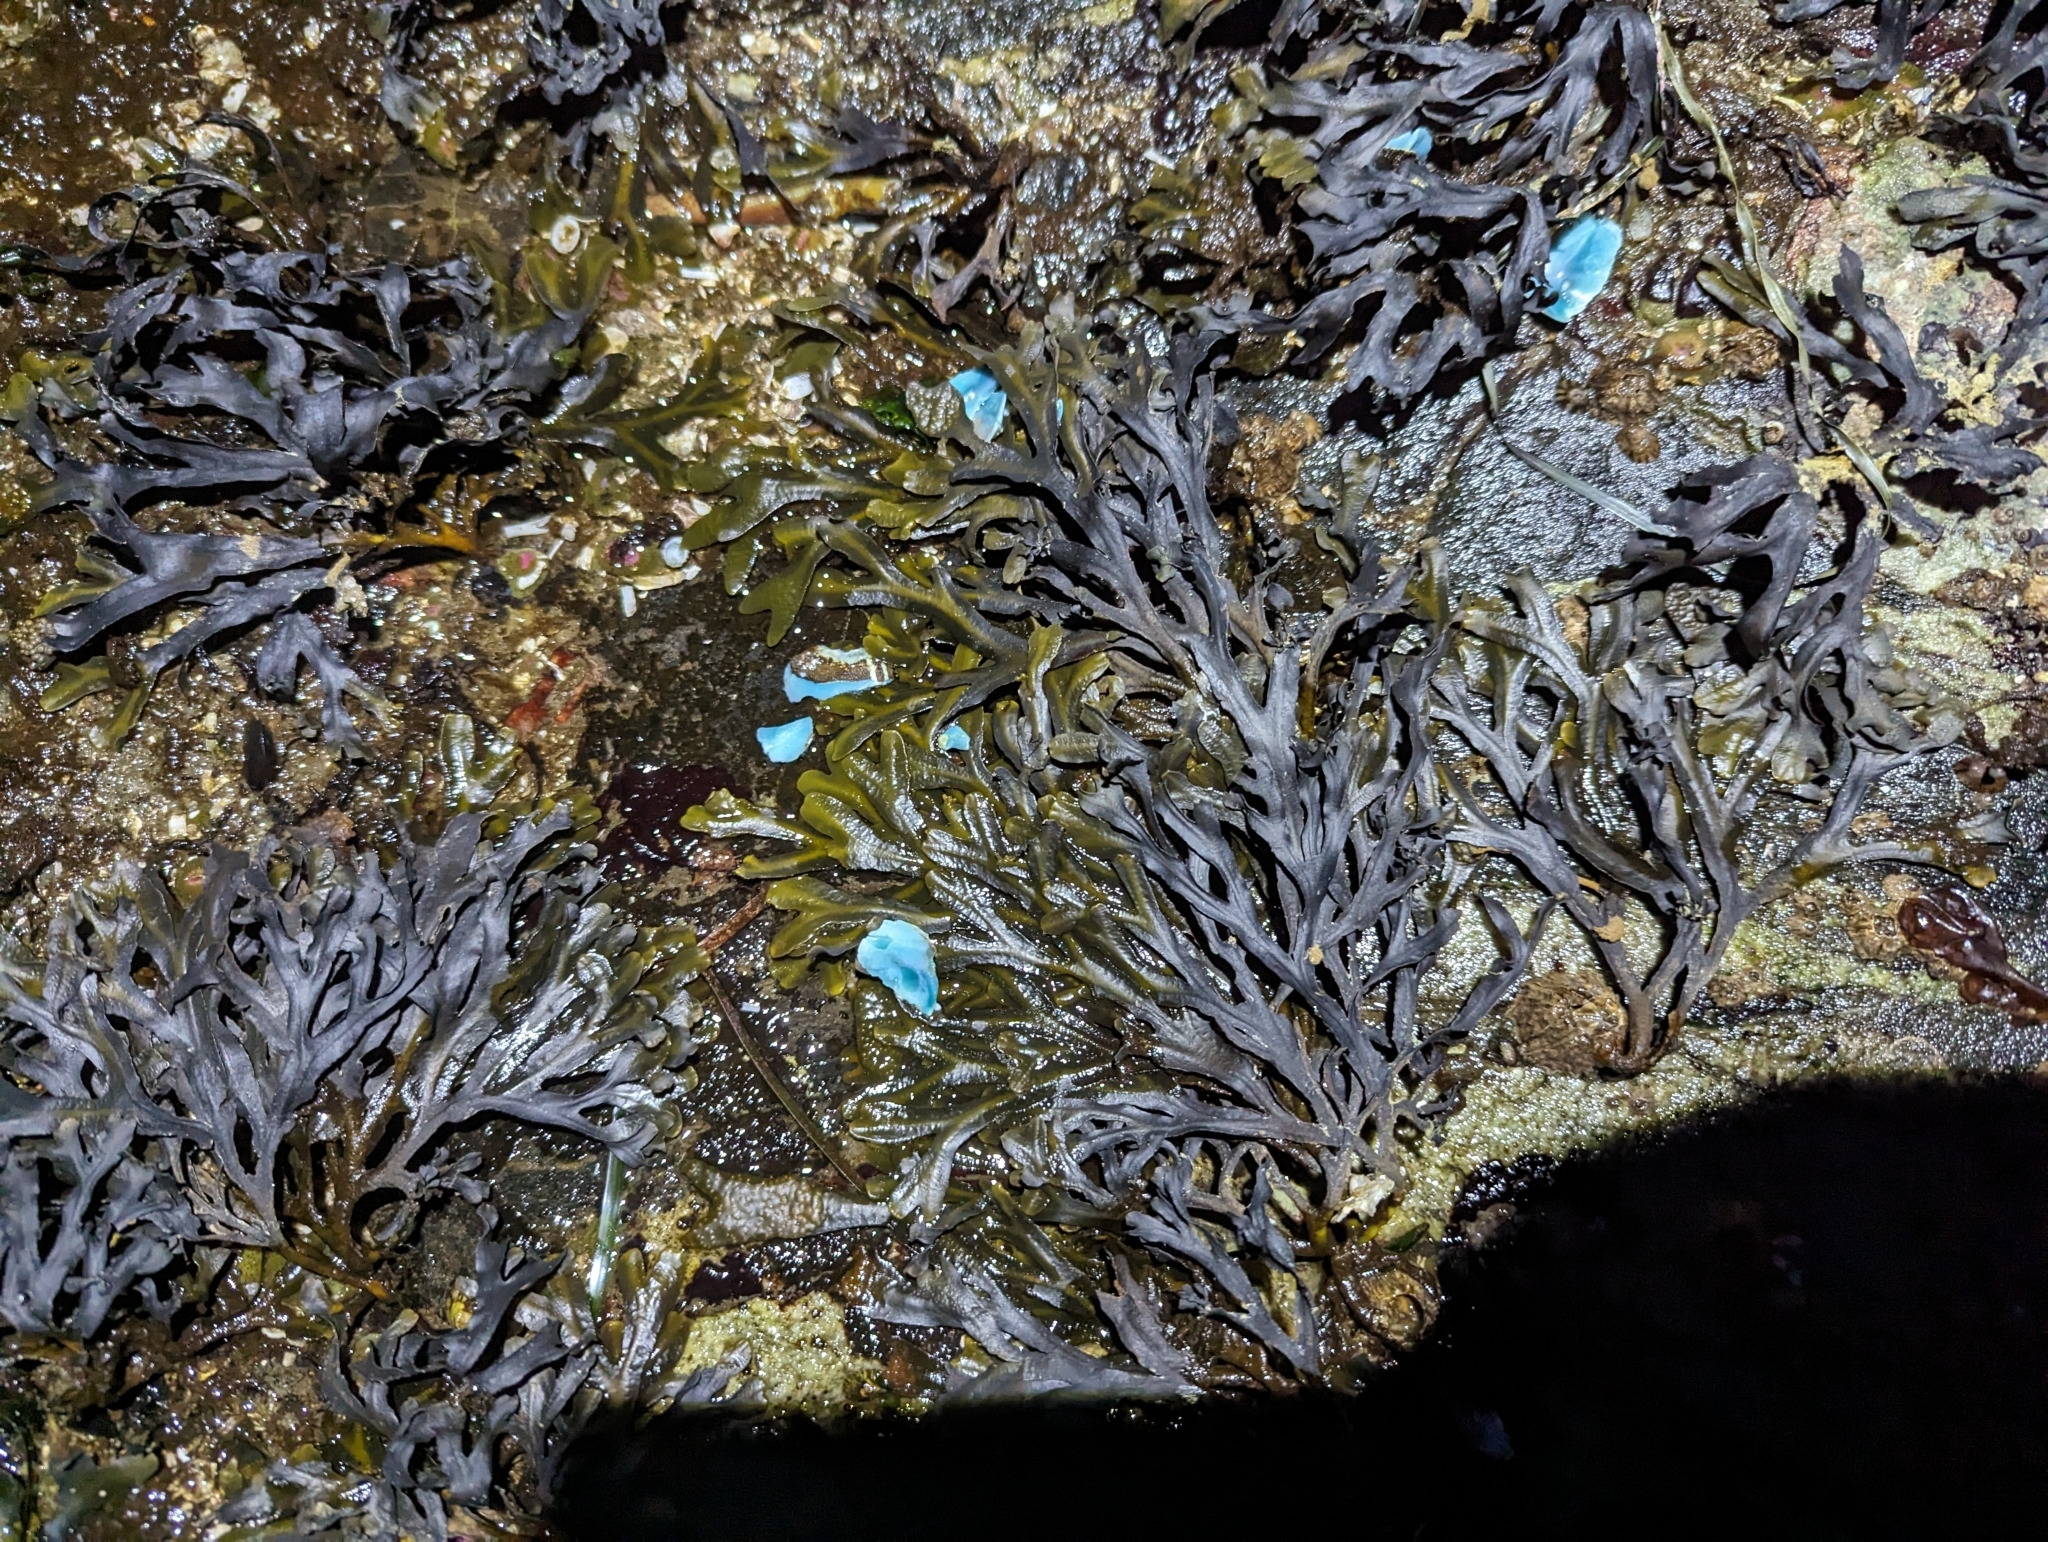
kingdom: Animalia
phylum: Mollusca
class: Polyplacophora
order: Chitonida
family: Mopaliidae
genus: Mopalia
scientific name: Mopalia muscosa
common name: Mossy chiton
